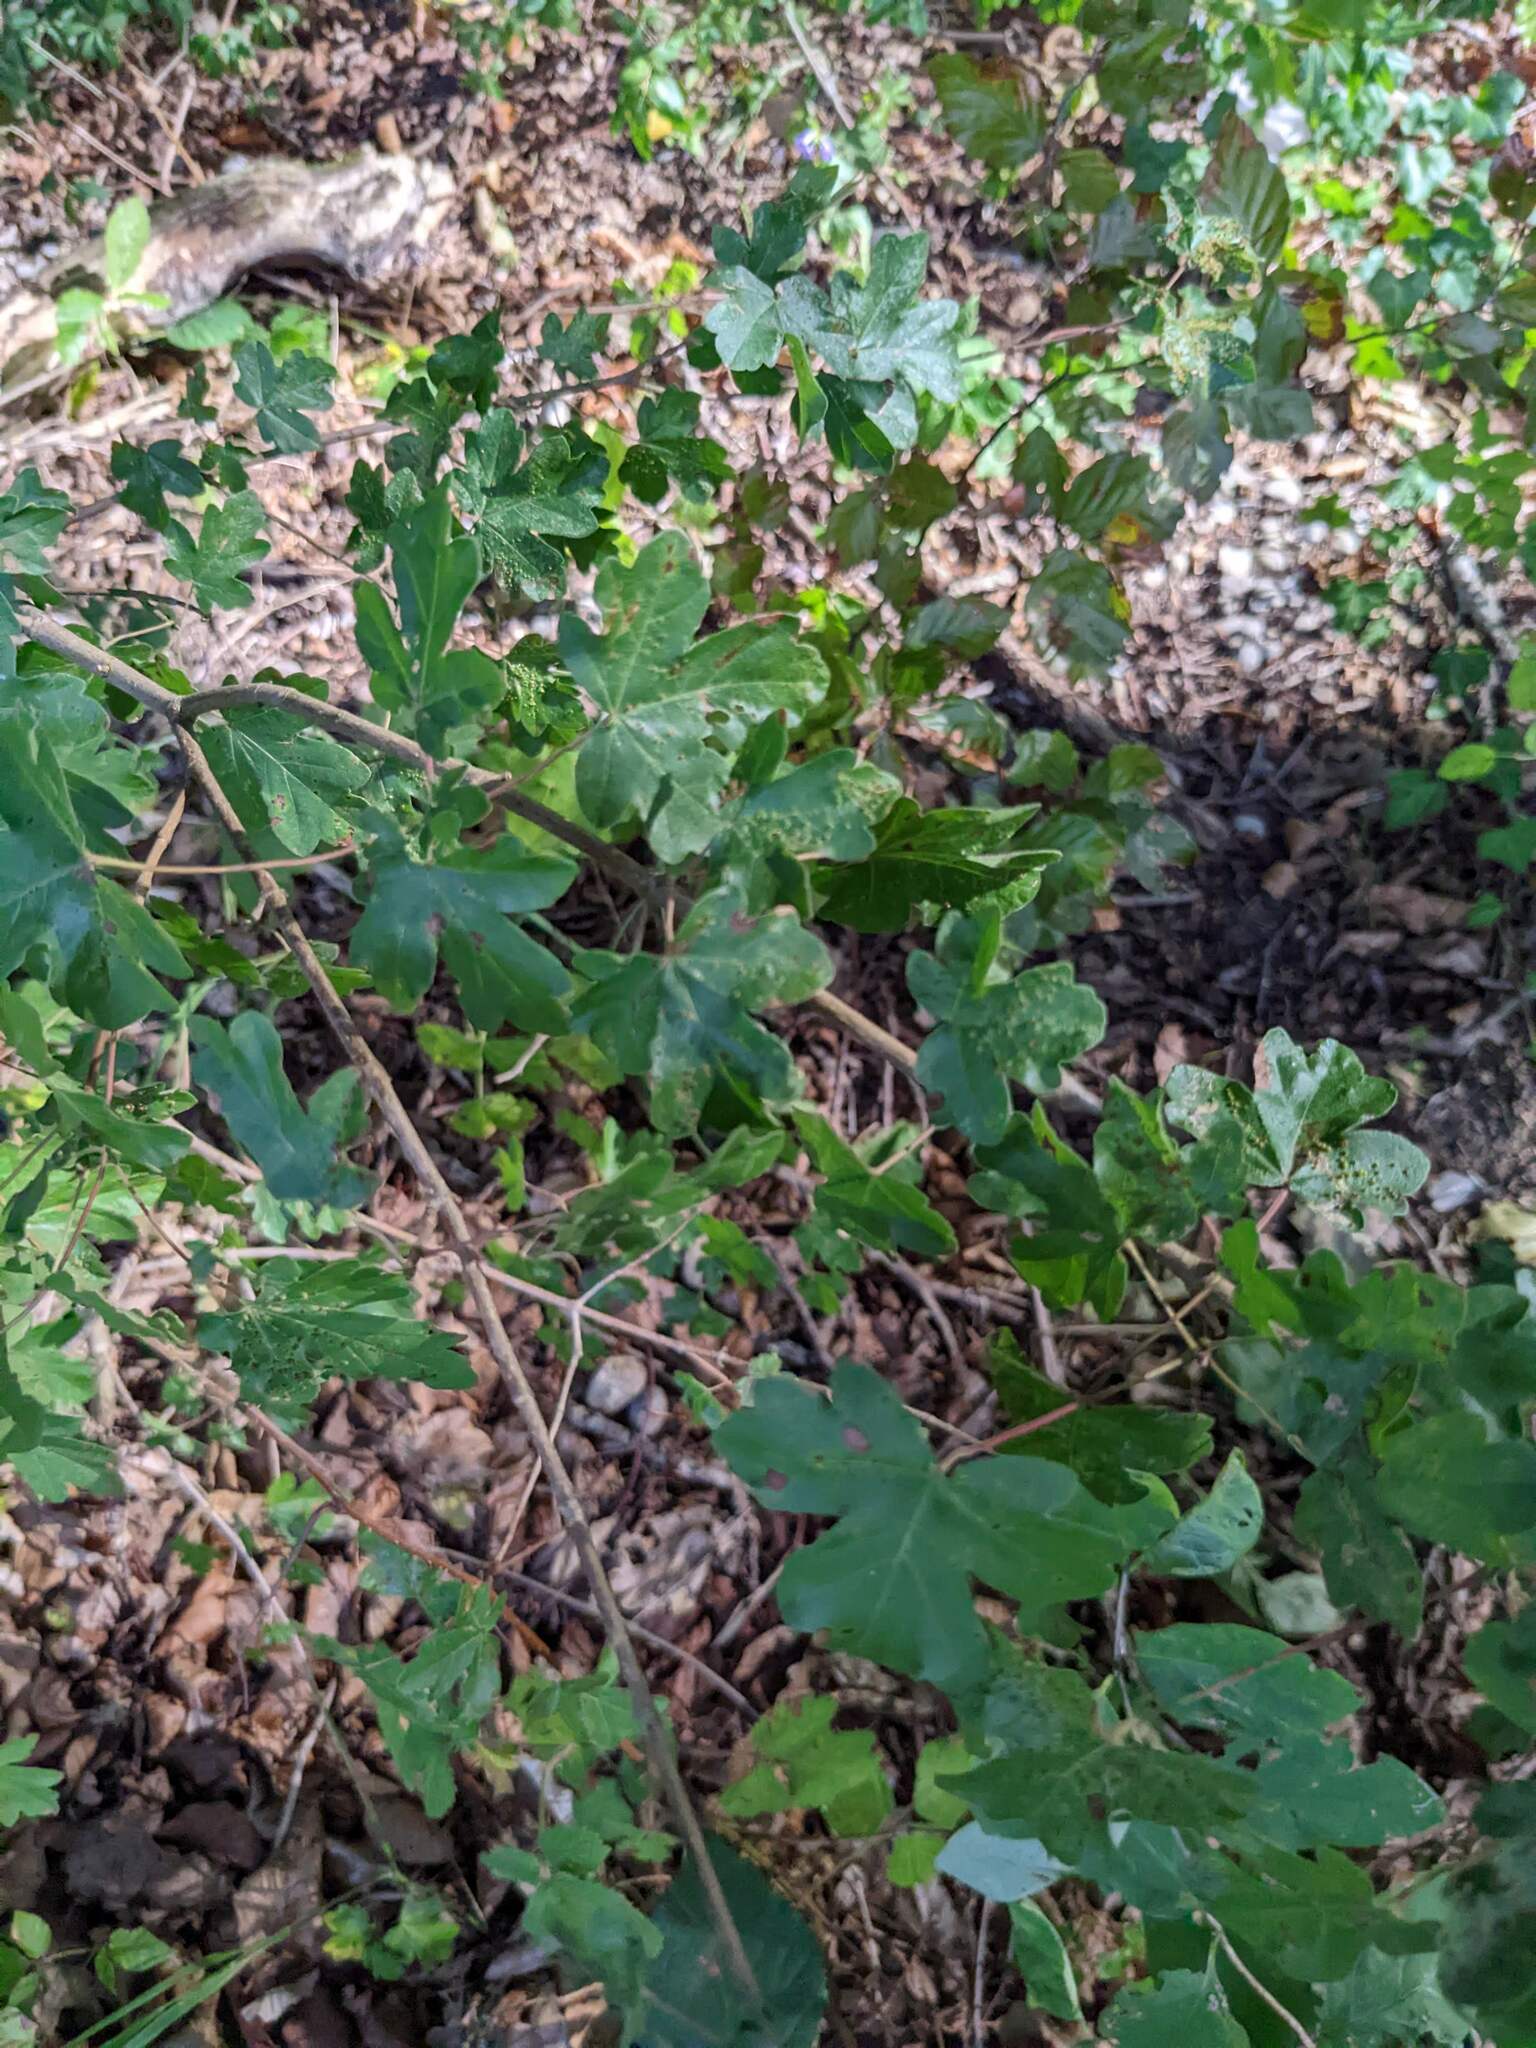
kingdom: Plantae
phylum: Tracheophyta
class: Magnoliopsida
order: Sapindales
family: Sapindaceae
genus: Acer
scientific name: Acer campestre
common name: Field maple
